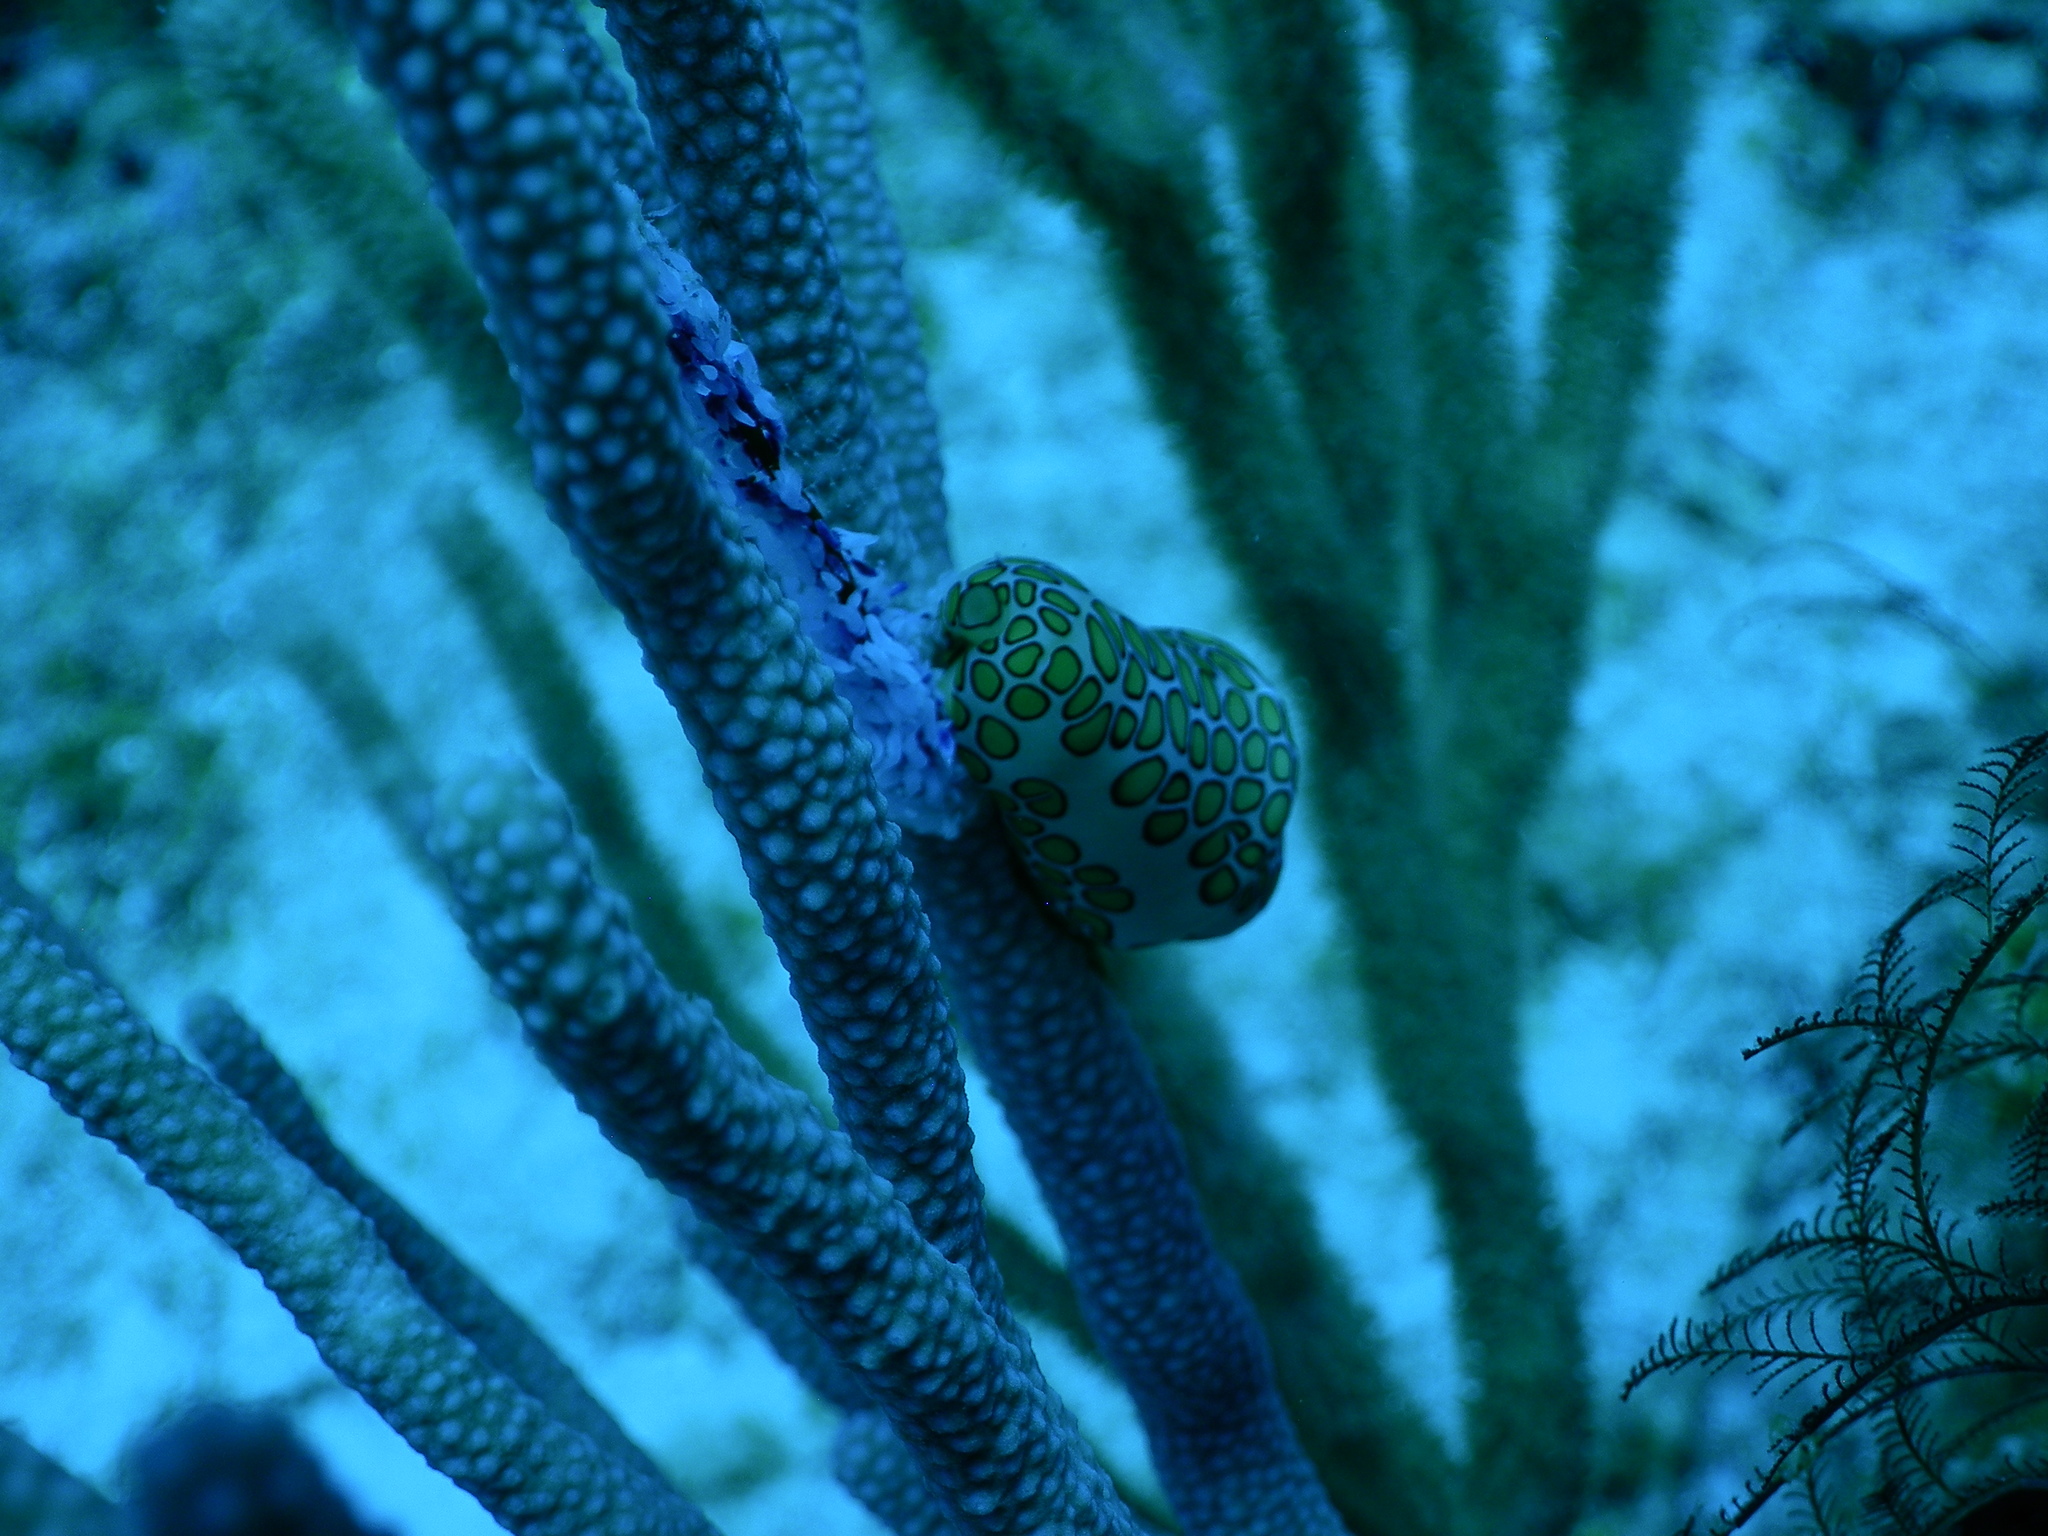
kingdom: Animalia
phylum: Mollusca
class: Gastropoda
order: Littorinimorpha
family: Ovulidae
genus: Cyphoma
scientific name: Cyphoma gibbosum
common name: Flamingo tongue
